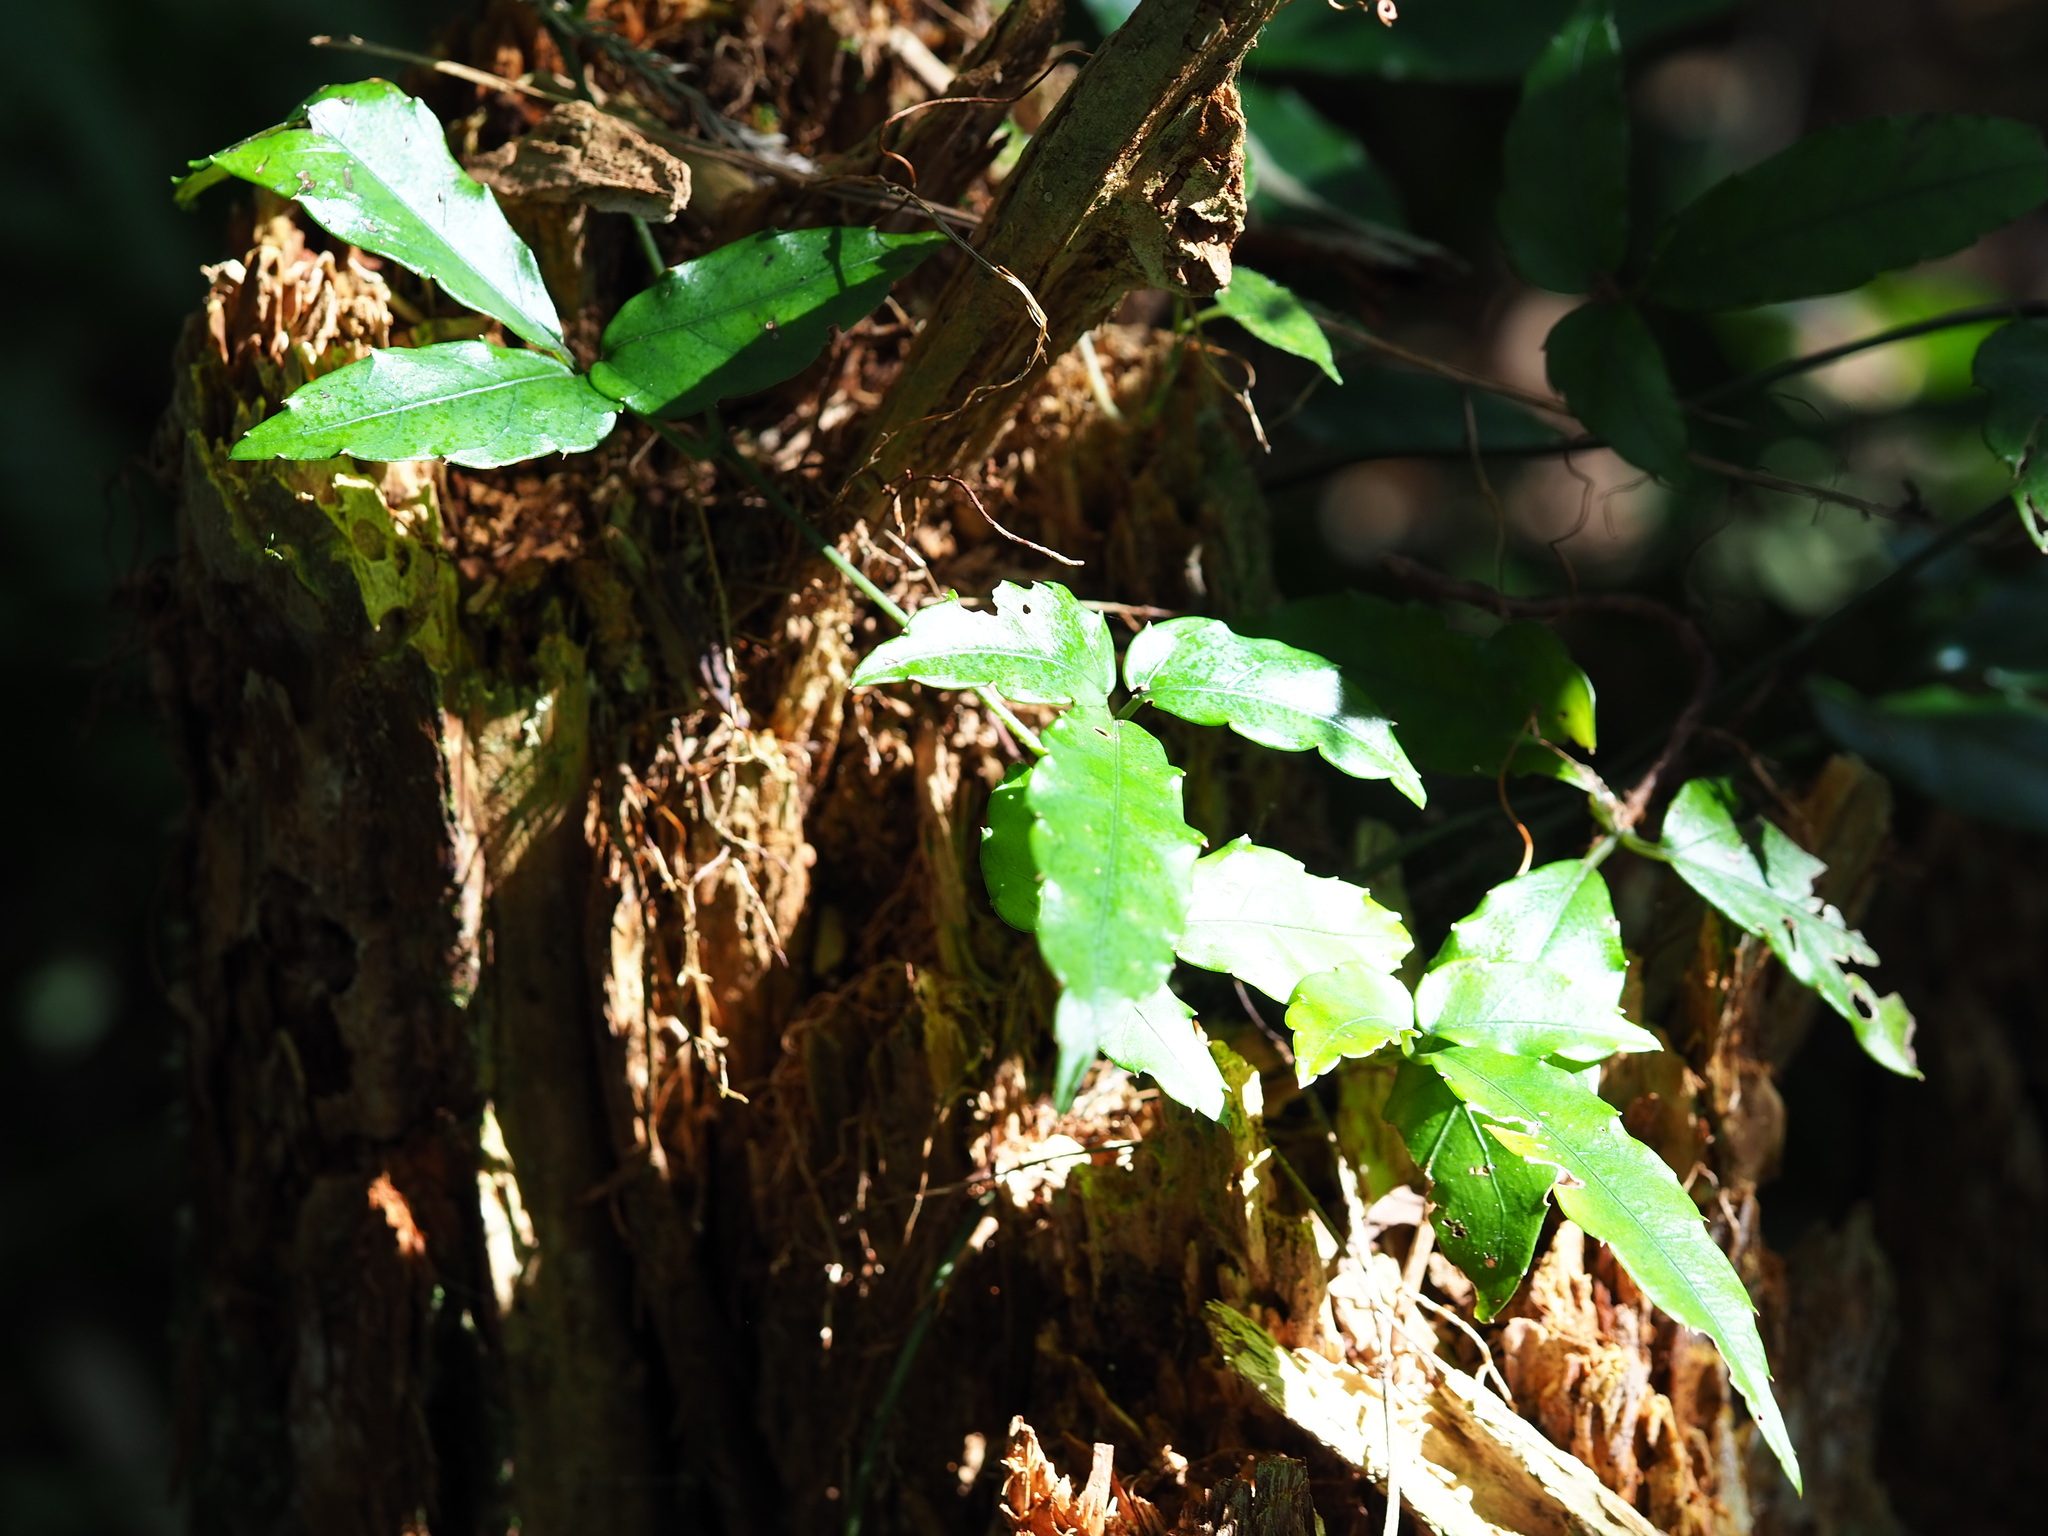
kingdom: Plantae
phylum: Tracheophyta
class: Magnoliopsida
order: Vitales
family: Vitaceae
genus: Tetrastigma
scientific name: Tetrastigma hemsleyanum
